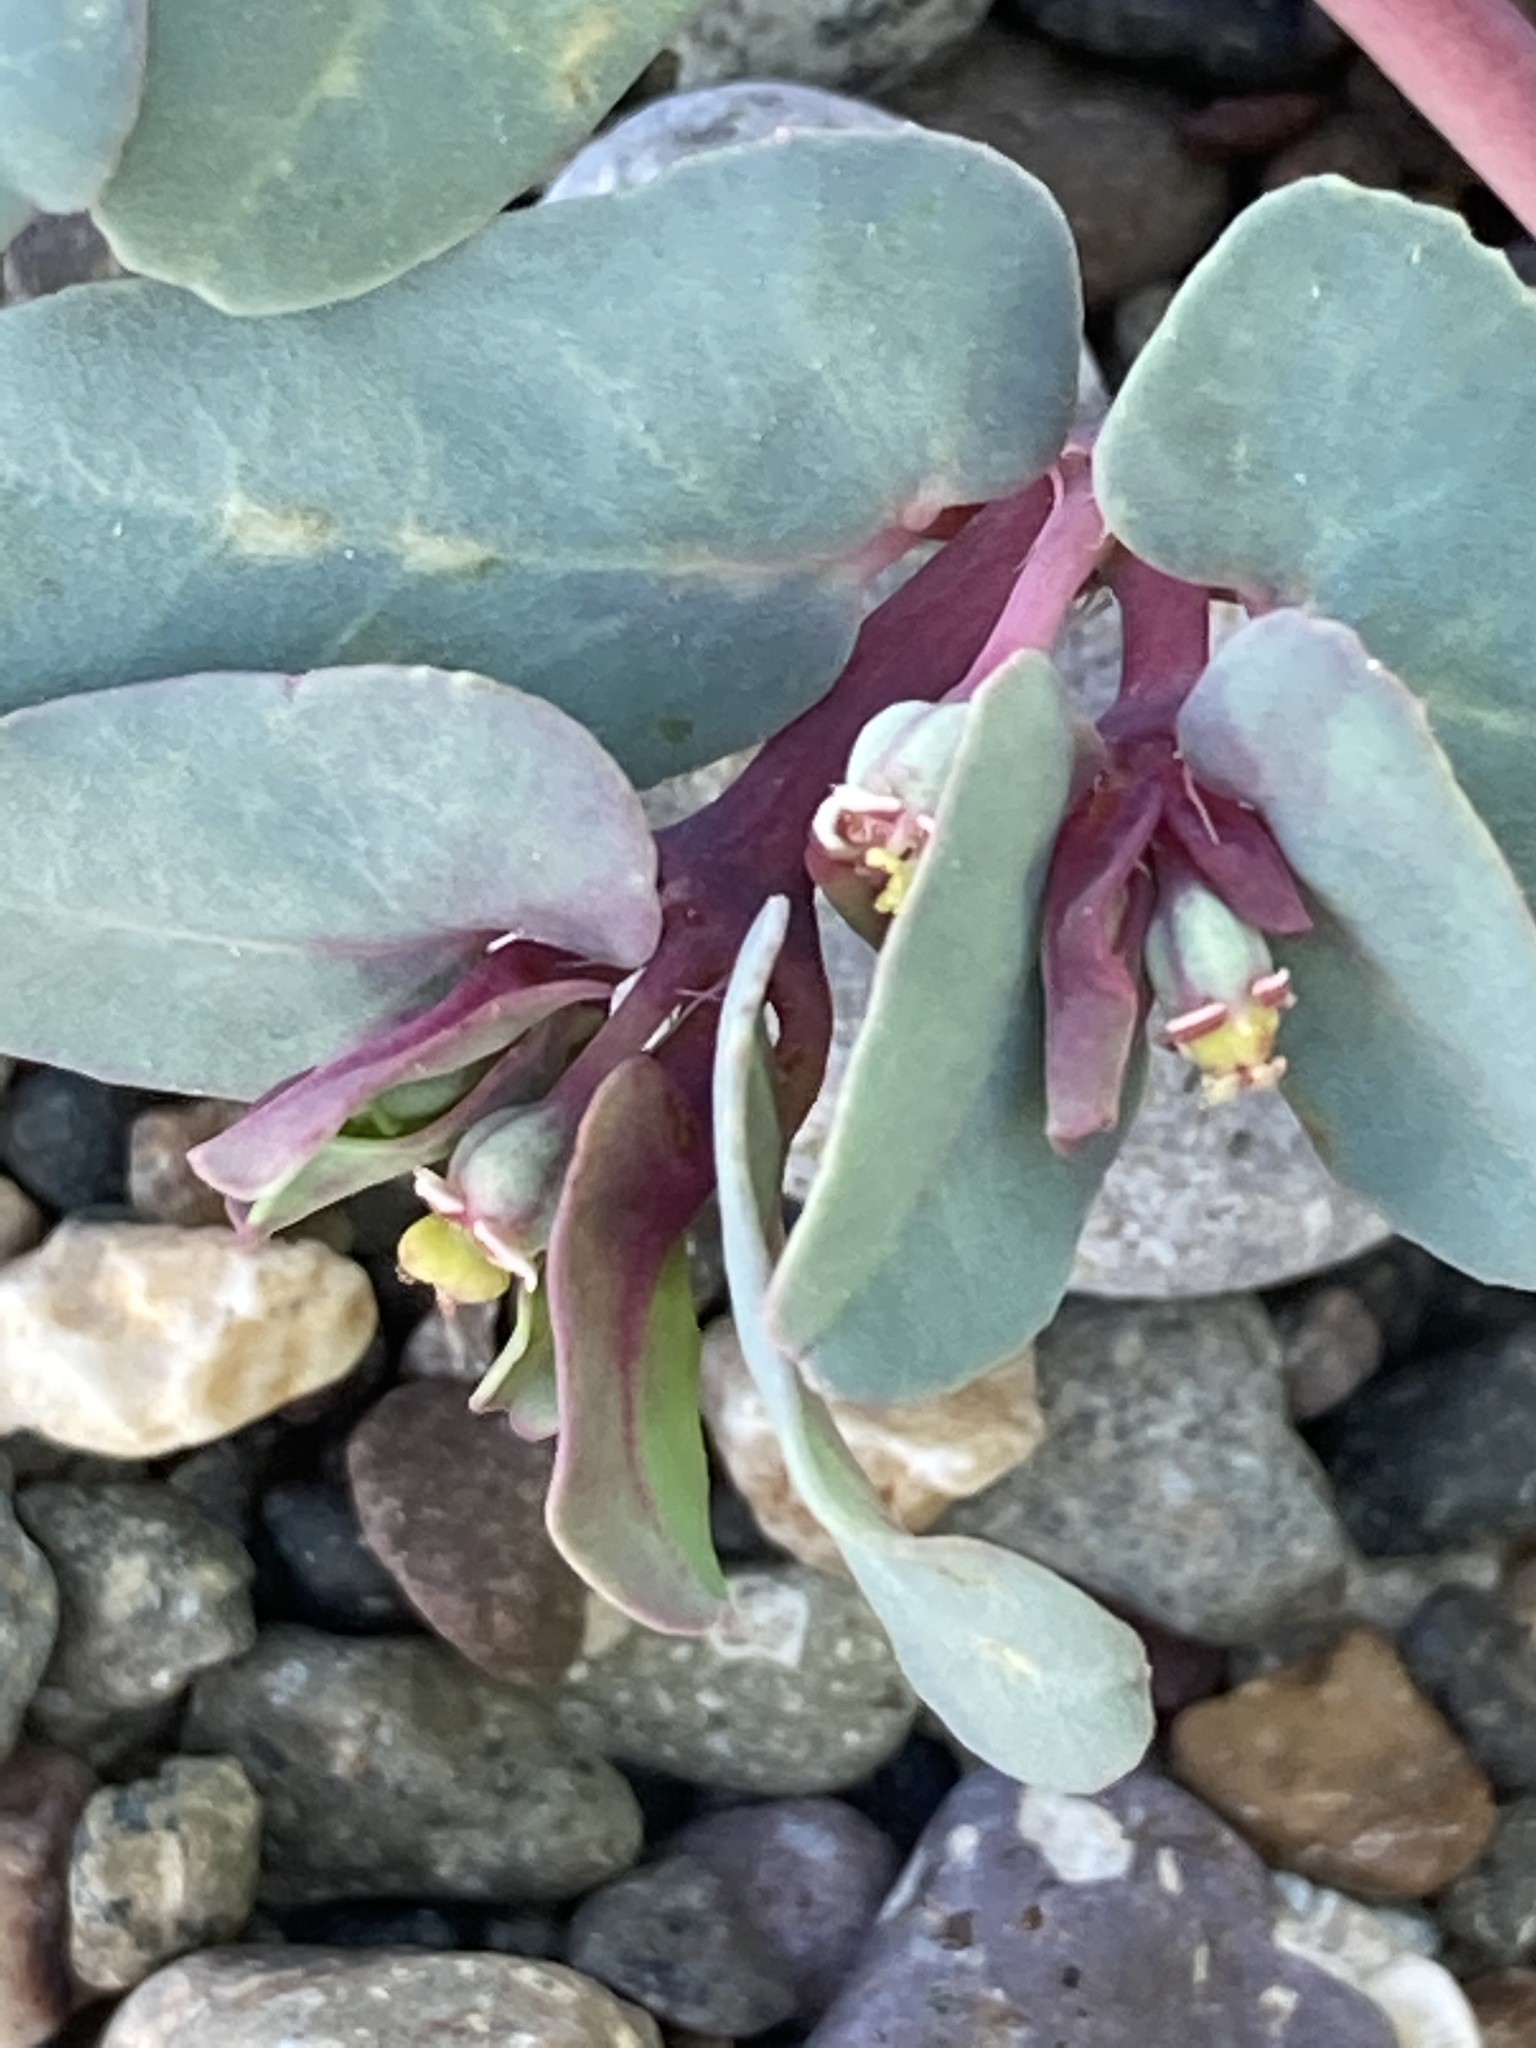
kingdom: Plantae
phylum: Tracheophyta
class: Magnoliopsida
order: Malpighiales
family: Euphorbiaceae
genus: Euphorbia
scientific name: Euphorbia peplis
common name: Purple spurge
